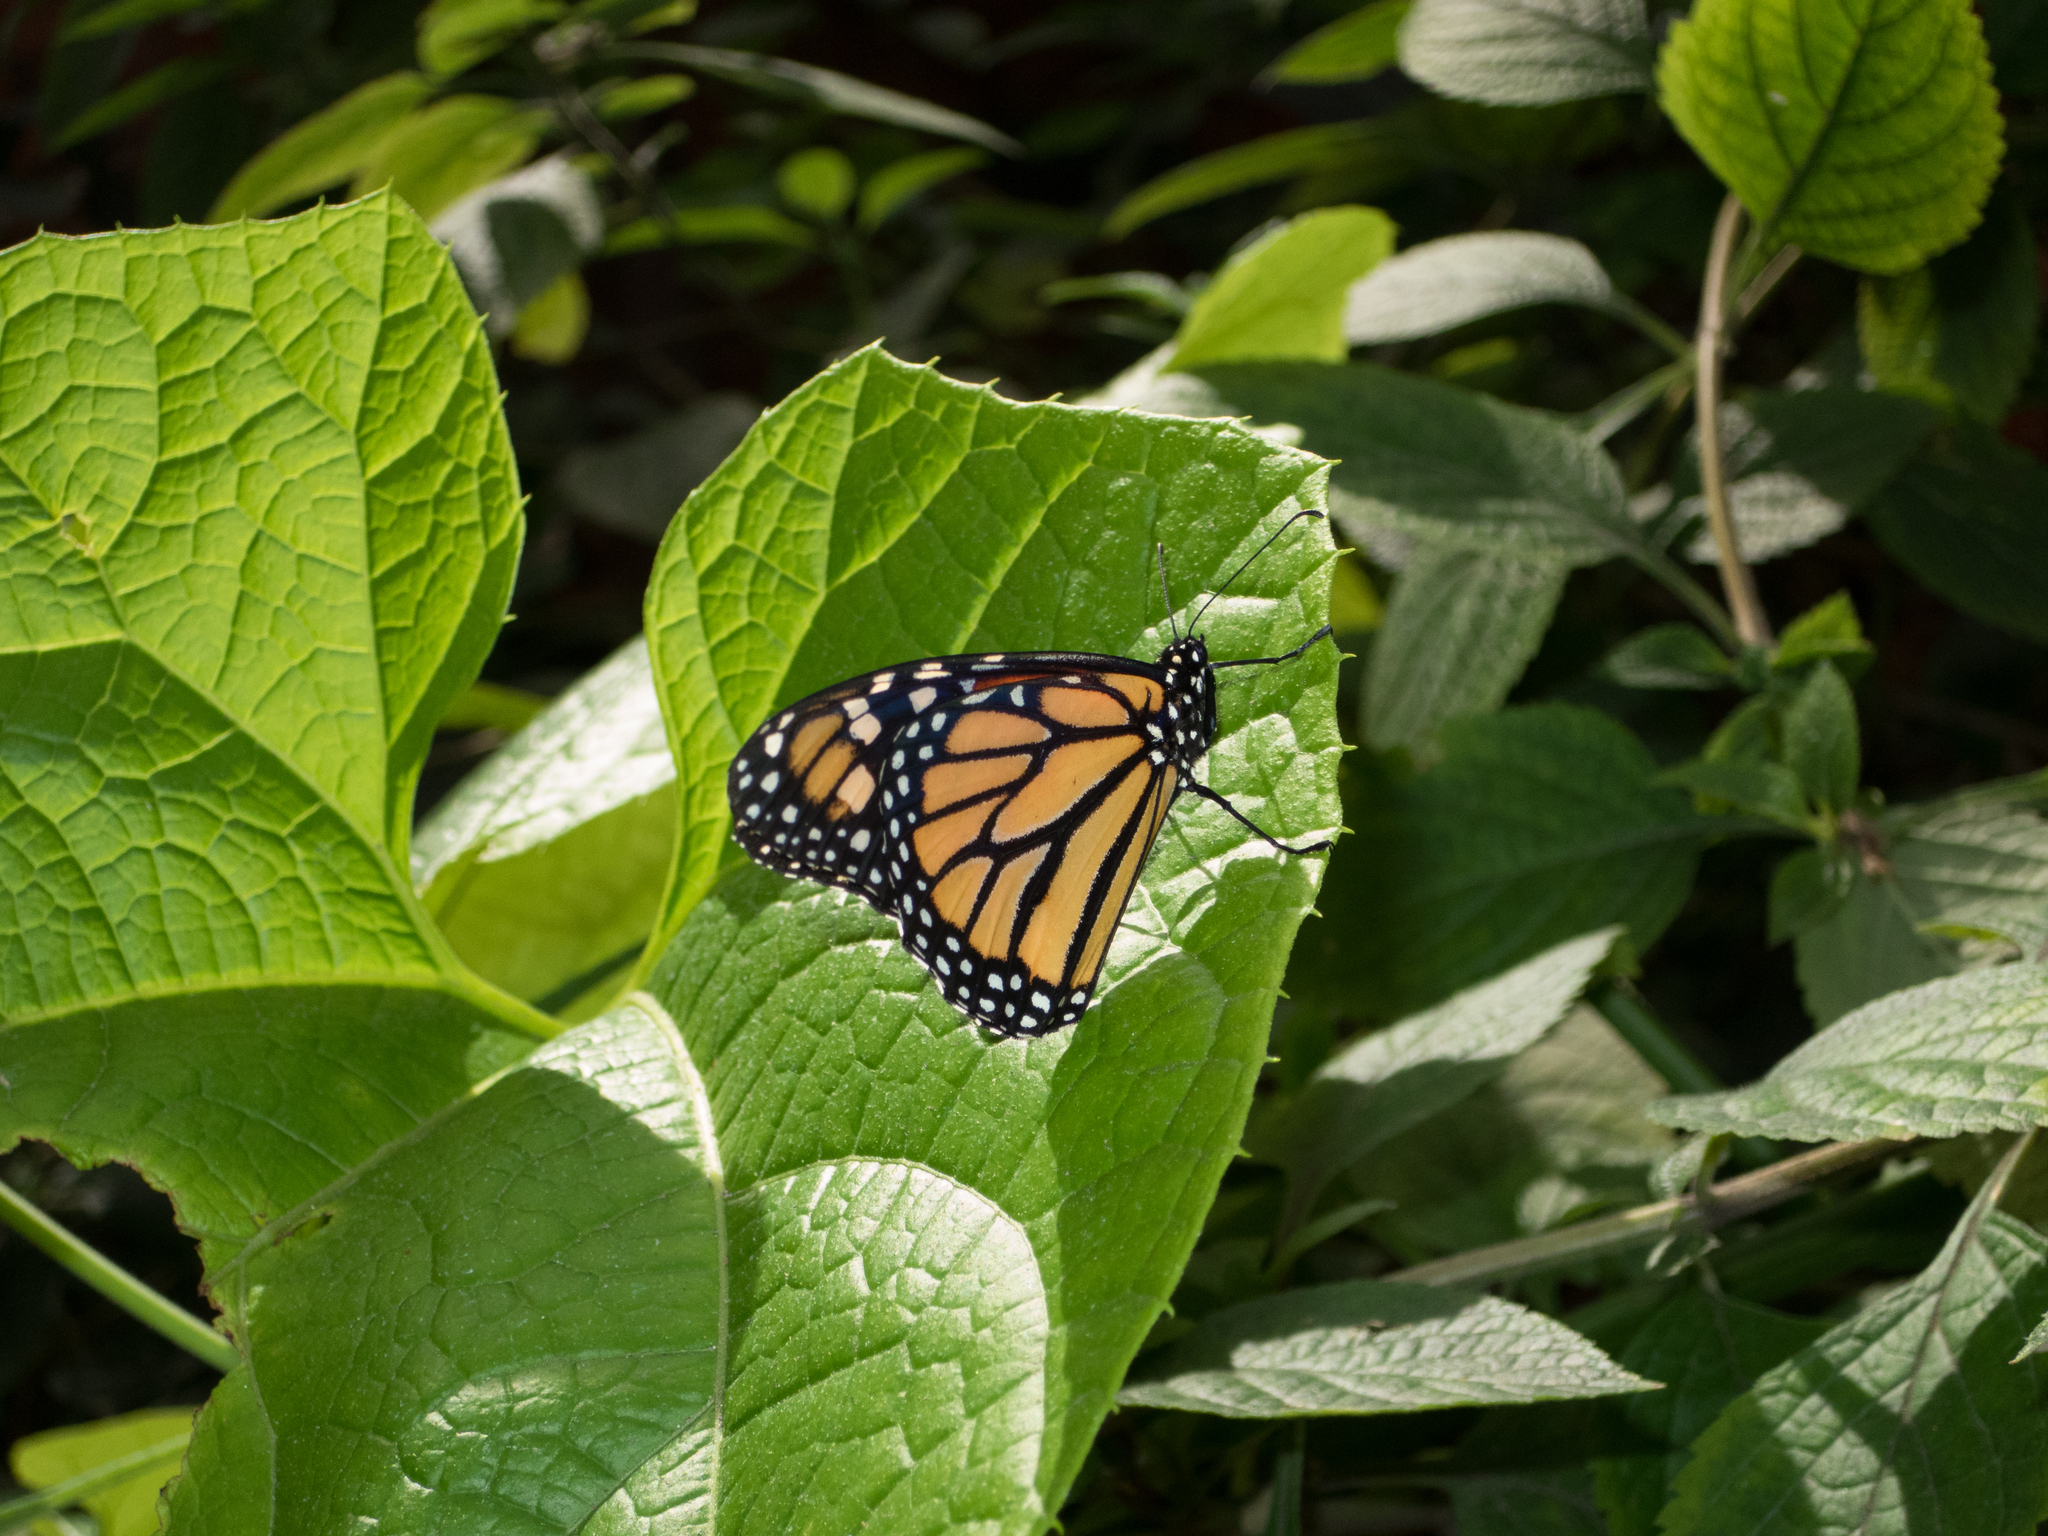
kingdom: Animalia
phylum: Arthropoda
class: Insecta
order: Lepidoptera
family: Nymphalidae
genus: Danaus
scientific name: Danaus plexippus
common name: Monarch
